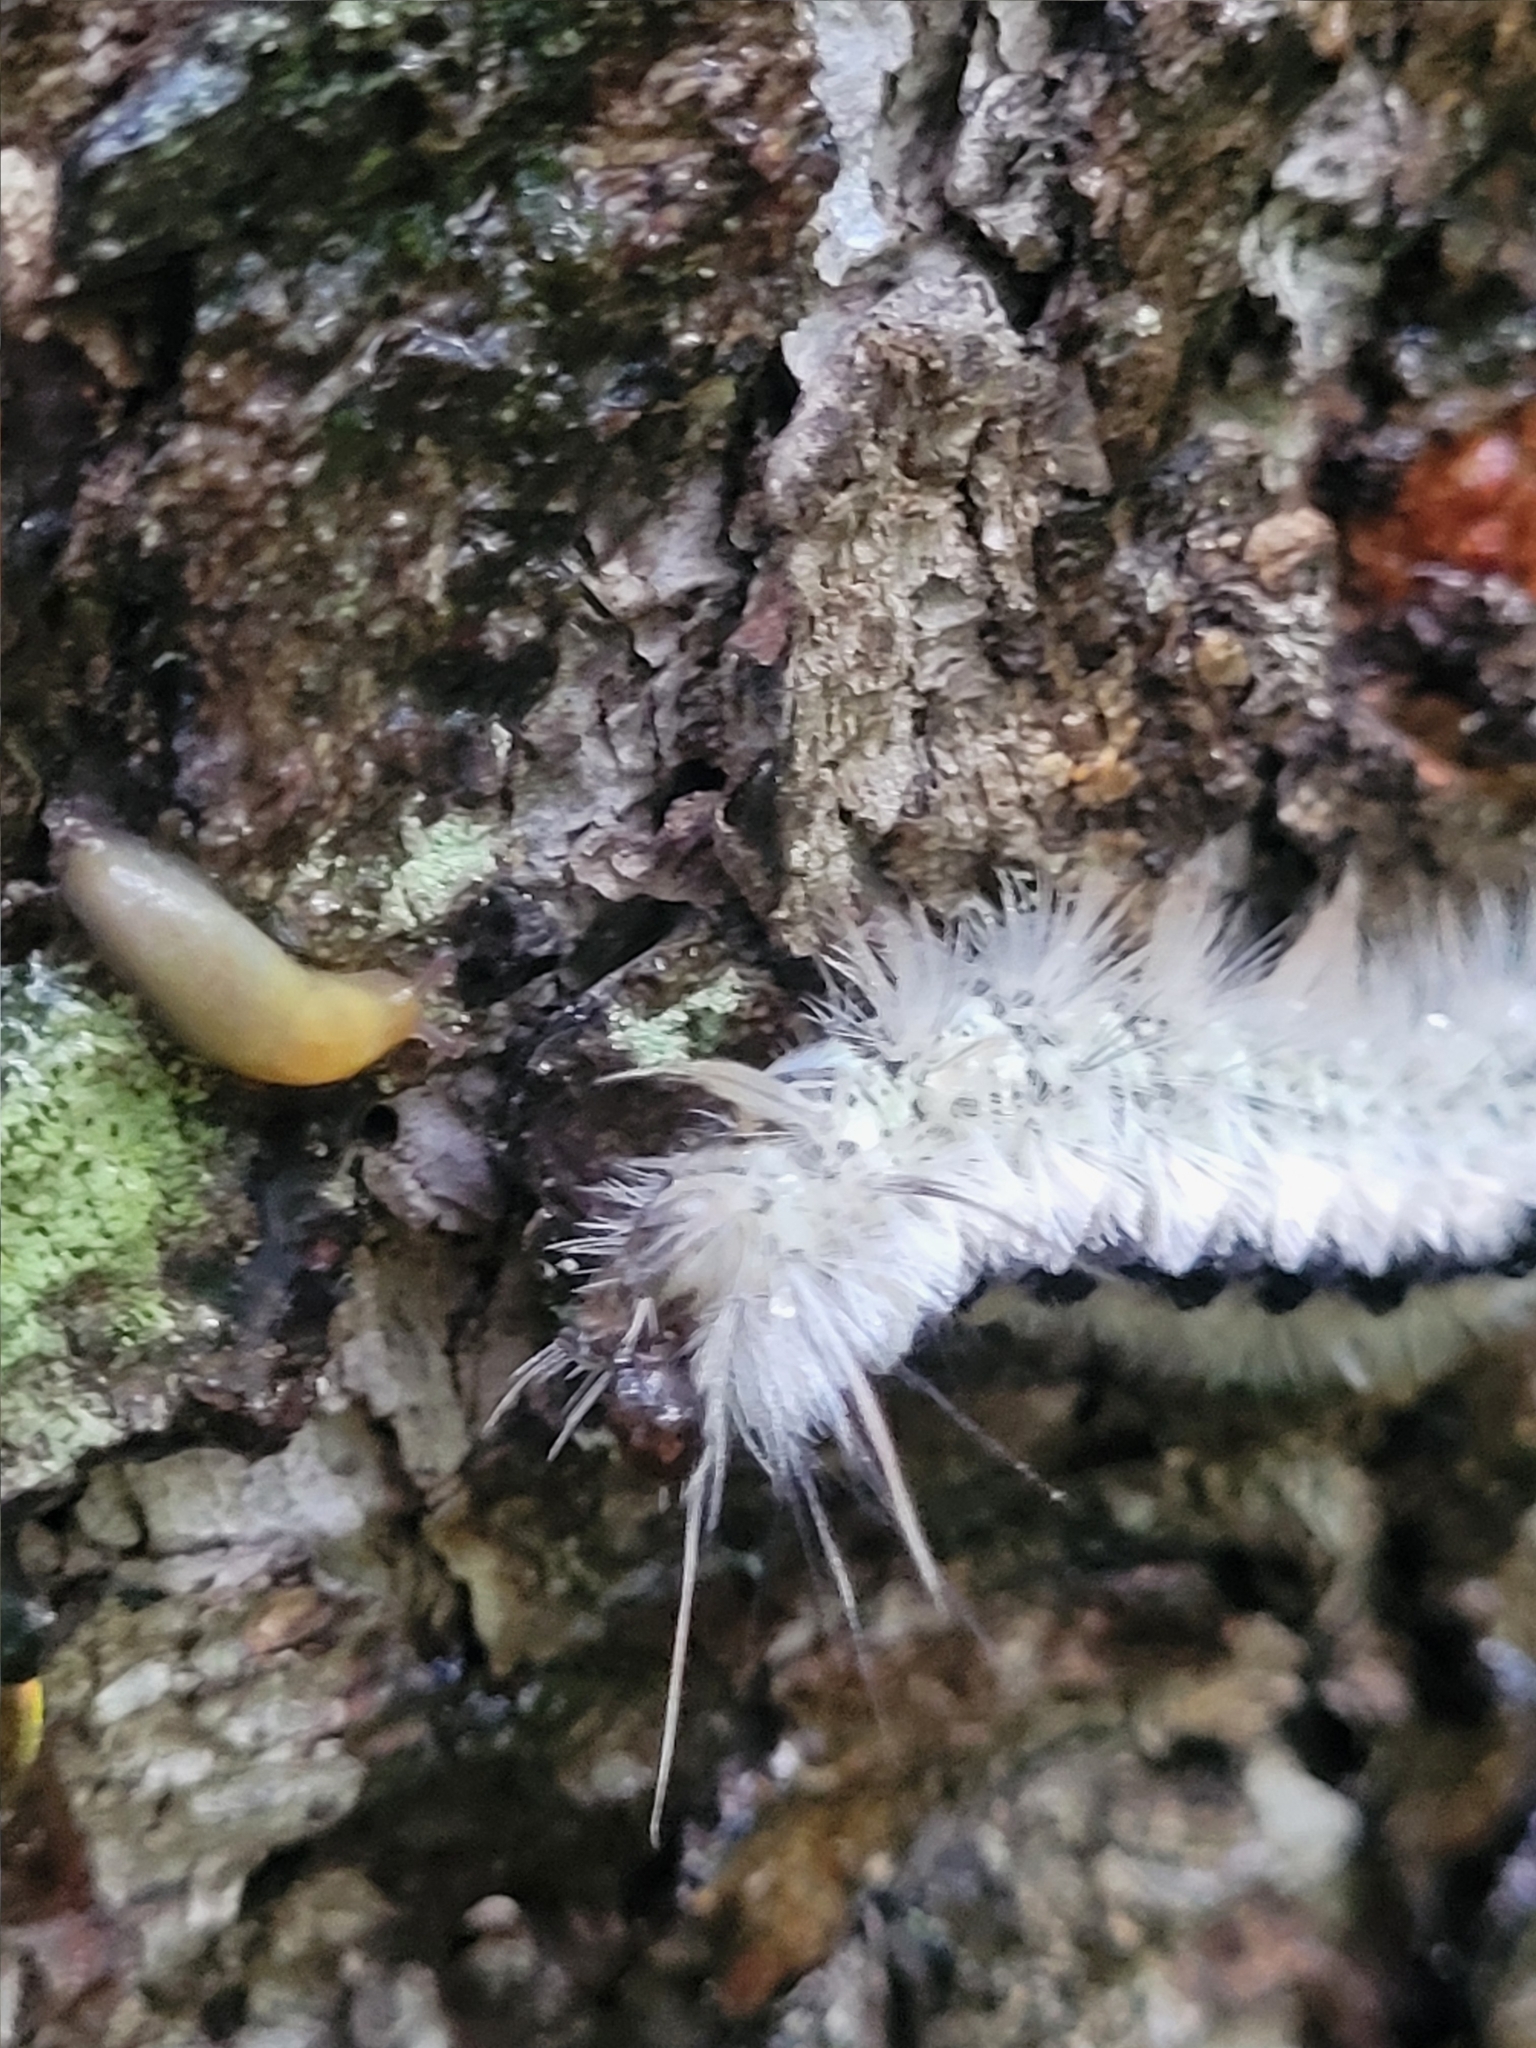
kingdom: Animalia
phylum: Arthropoda
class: Insecta
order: Lepidoptera
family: Erebidae
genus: Lophocampa
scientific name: Lophocampa caryae
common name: Hickory tussock moth
